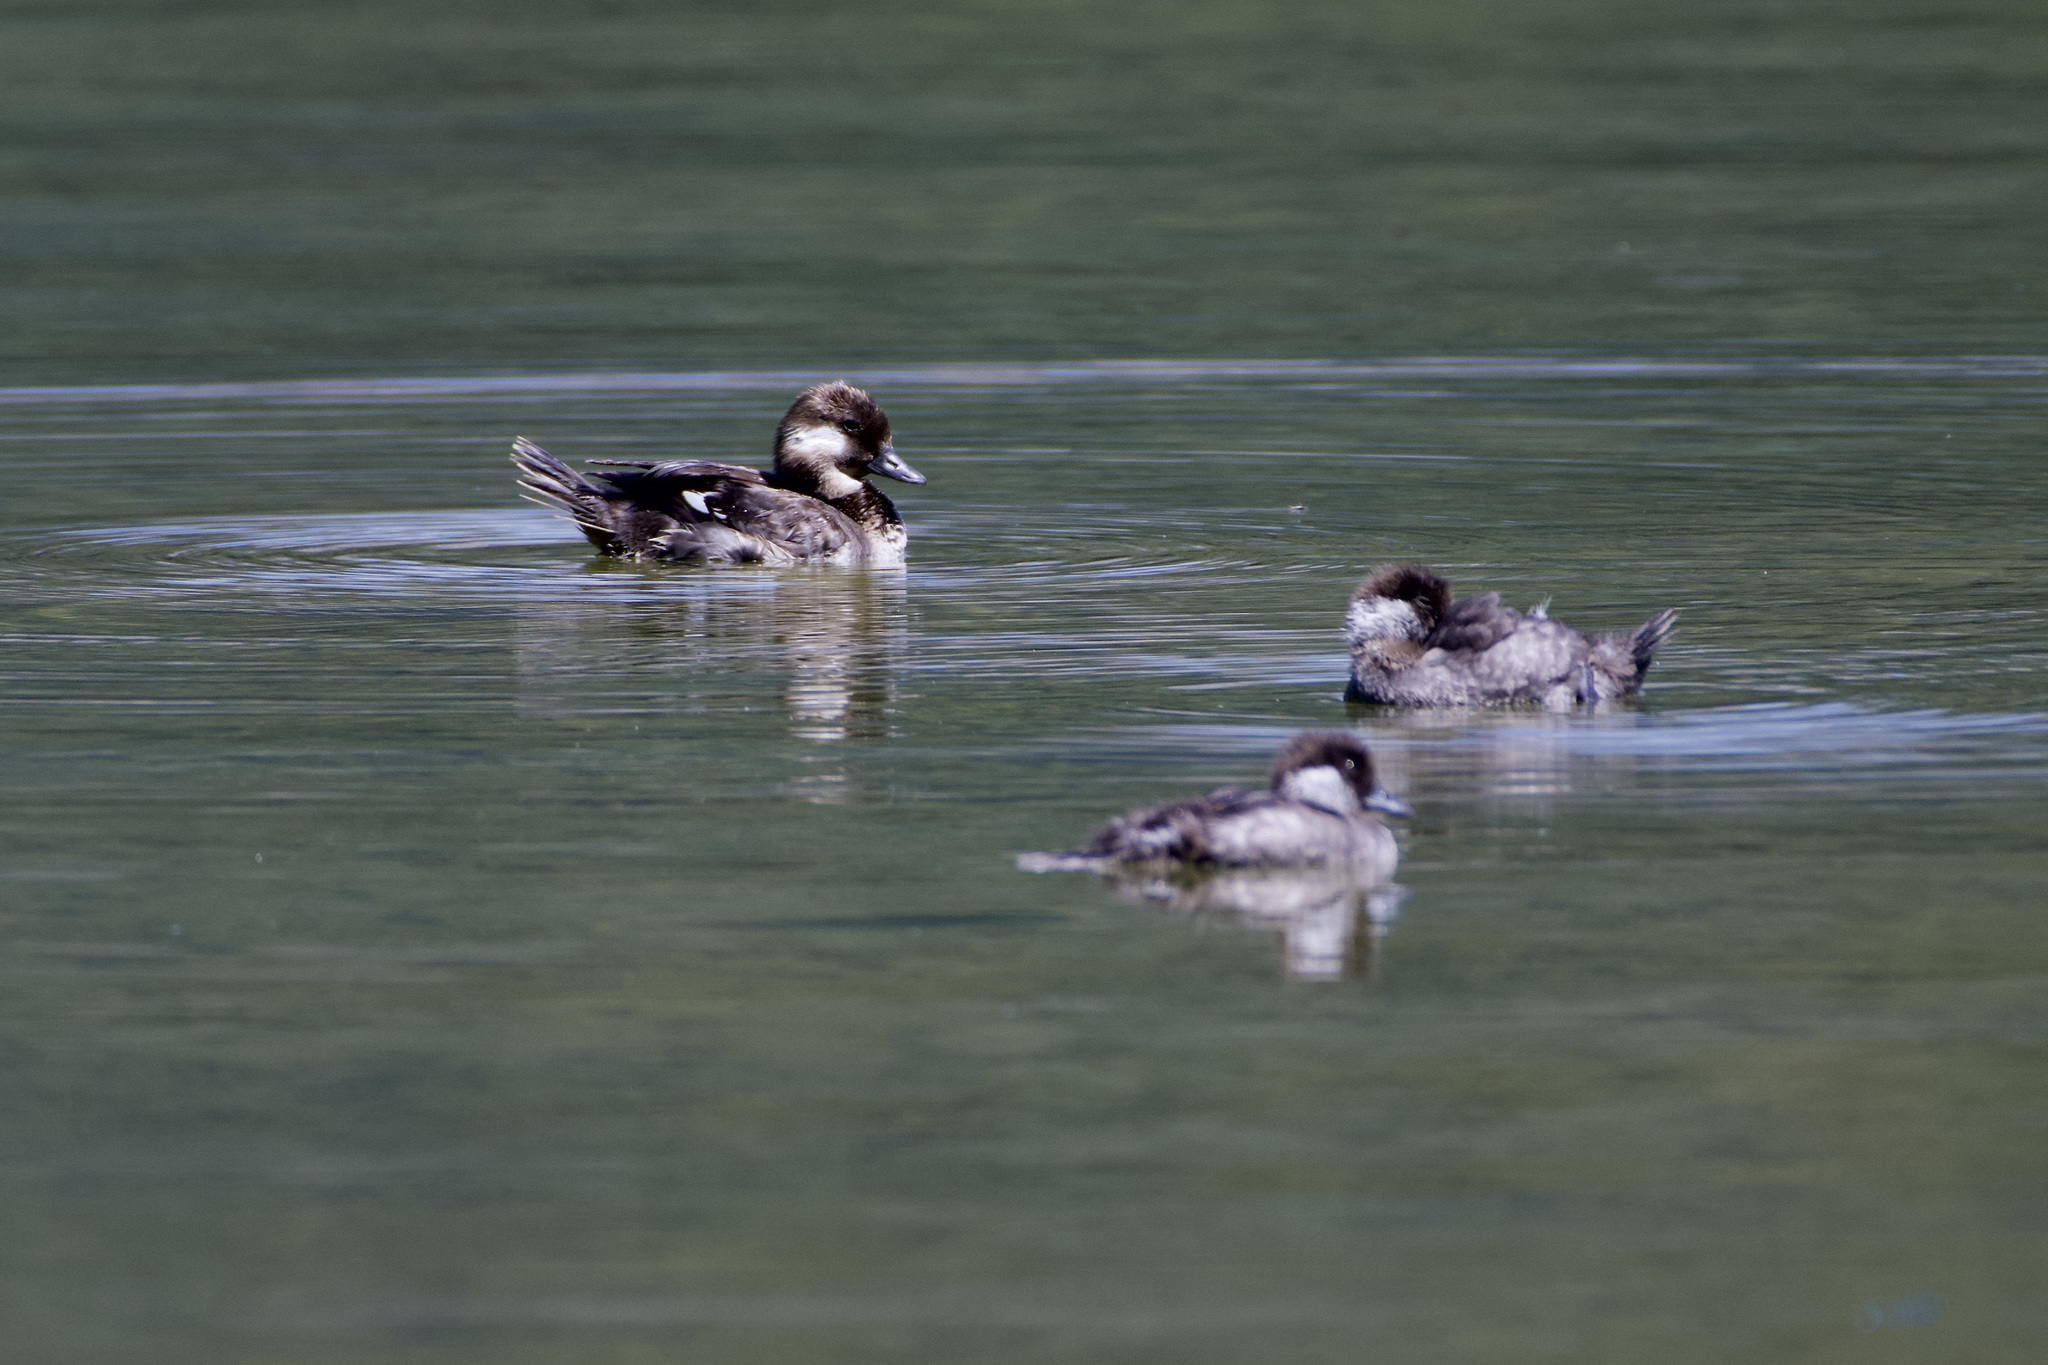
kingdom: Animalia
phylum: Chordata
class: Aves
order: Anseriformes
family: Anatidae
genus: Bucephala
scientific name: Bucephala albeola
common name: Bufflehead
